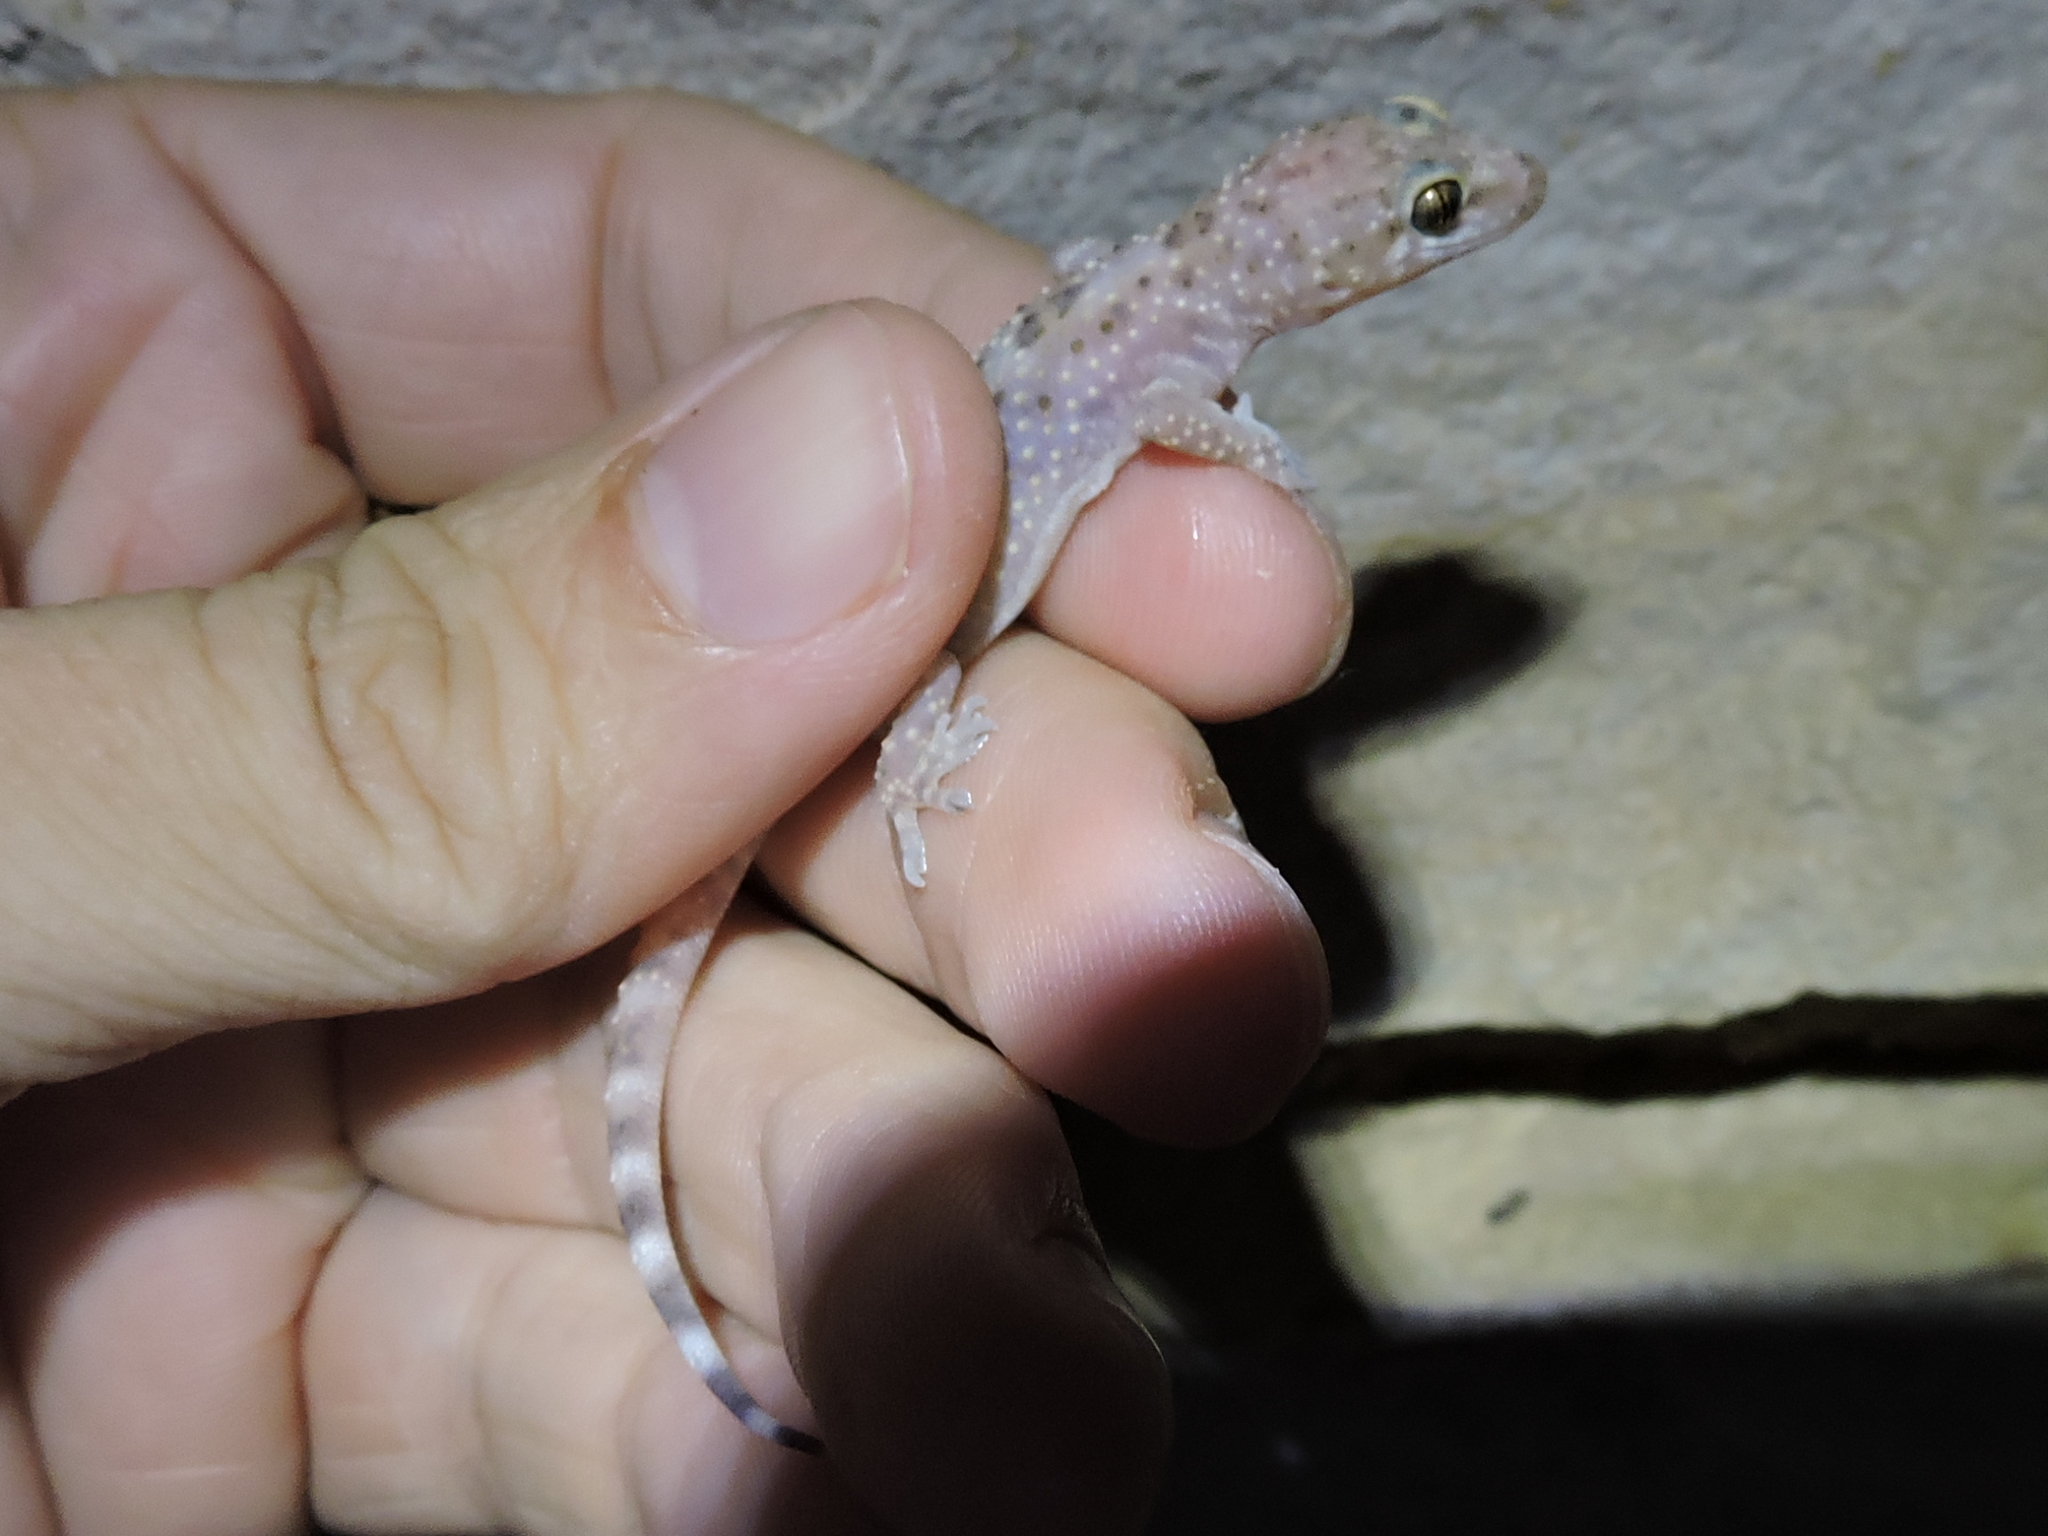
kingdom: Animalia
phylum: Chordata
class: Squamata
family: Gekkonidae
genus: Hemidactylus
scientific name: Hemidactylus turcicus
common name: Turkish gecko
